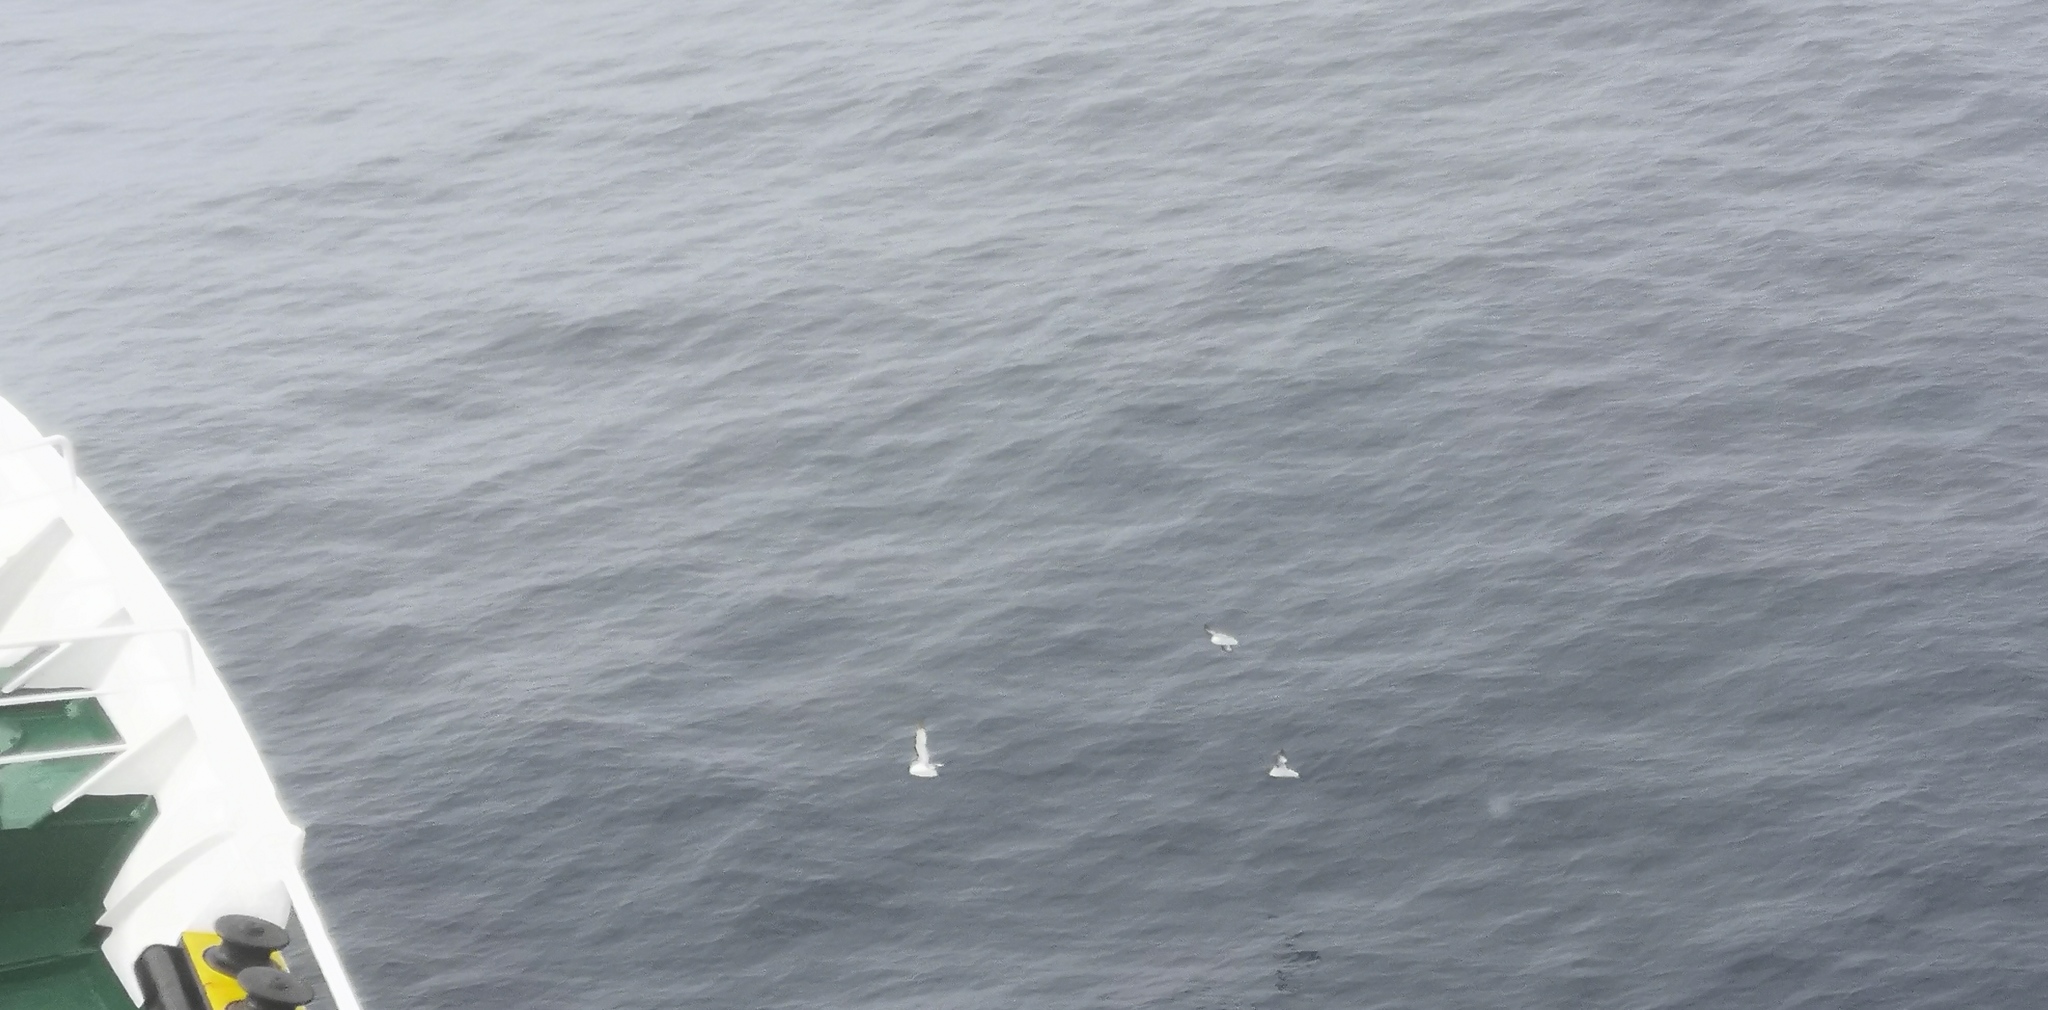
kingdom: Animalia
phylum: Chordata
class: Aves
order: Procellariiformes
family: Procellariidae
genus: Daption
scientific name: Daption capense
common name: Cape petrel
